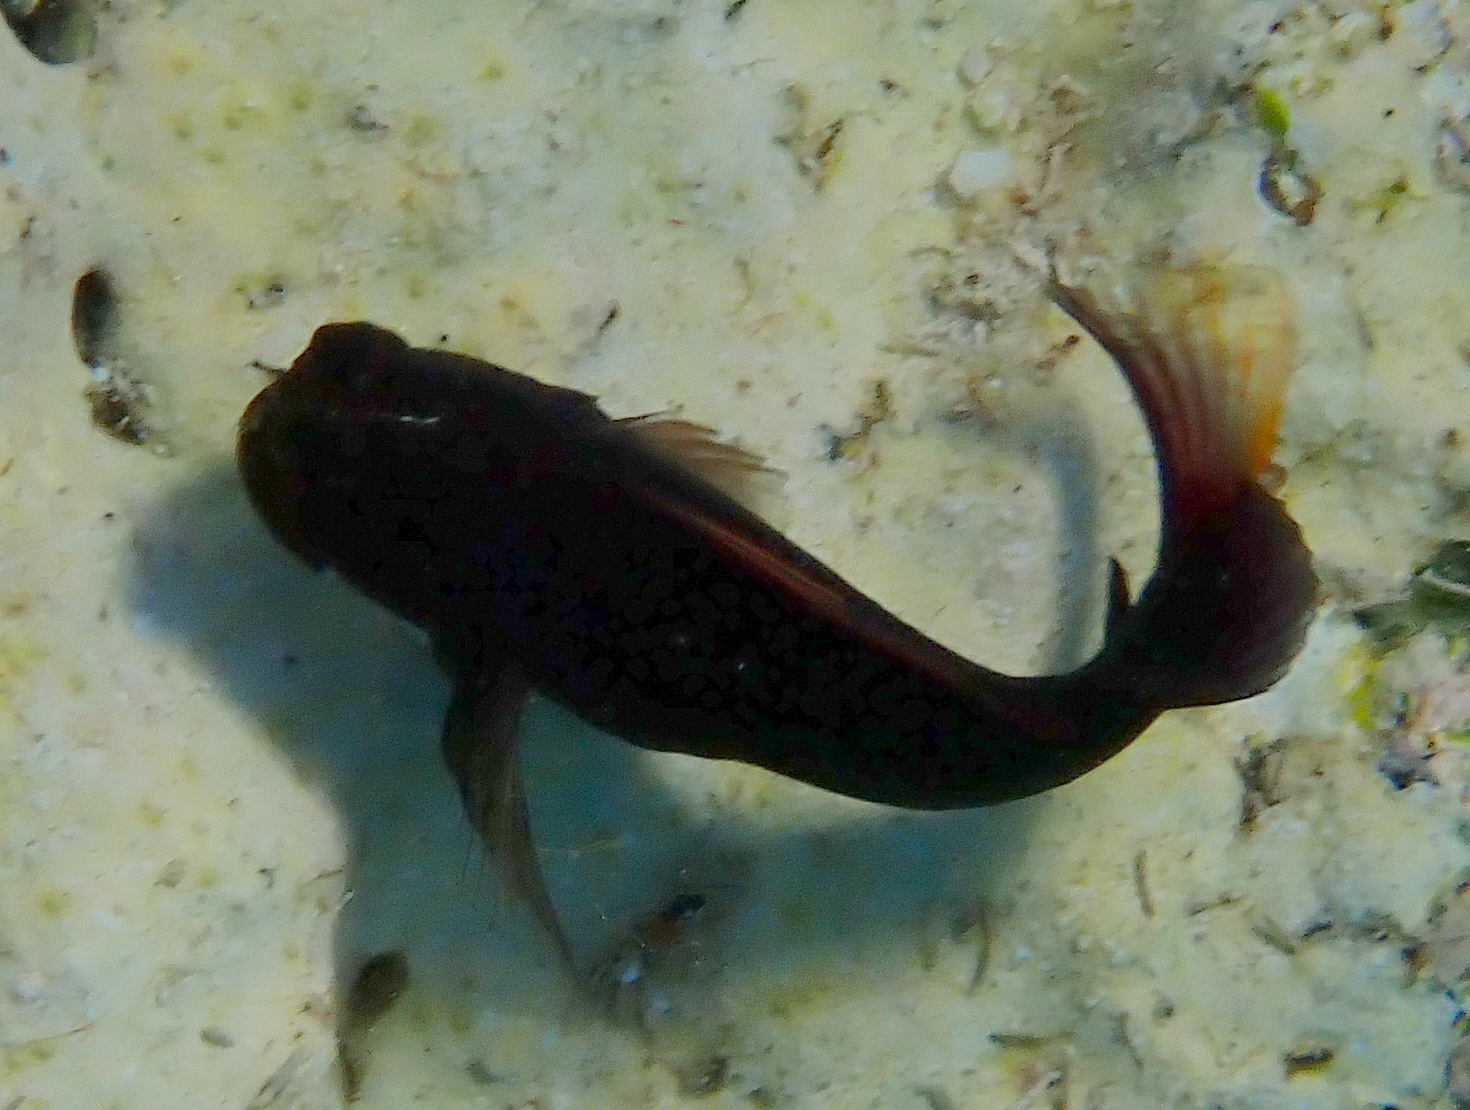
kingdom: Animalia
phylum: Chordata
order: Perciformes
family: Blenniidae
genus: Cirripectes
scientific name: Cirripectes castaneus
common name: Chestnut blenny
